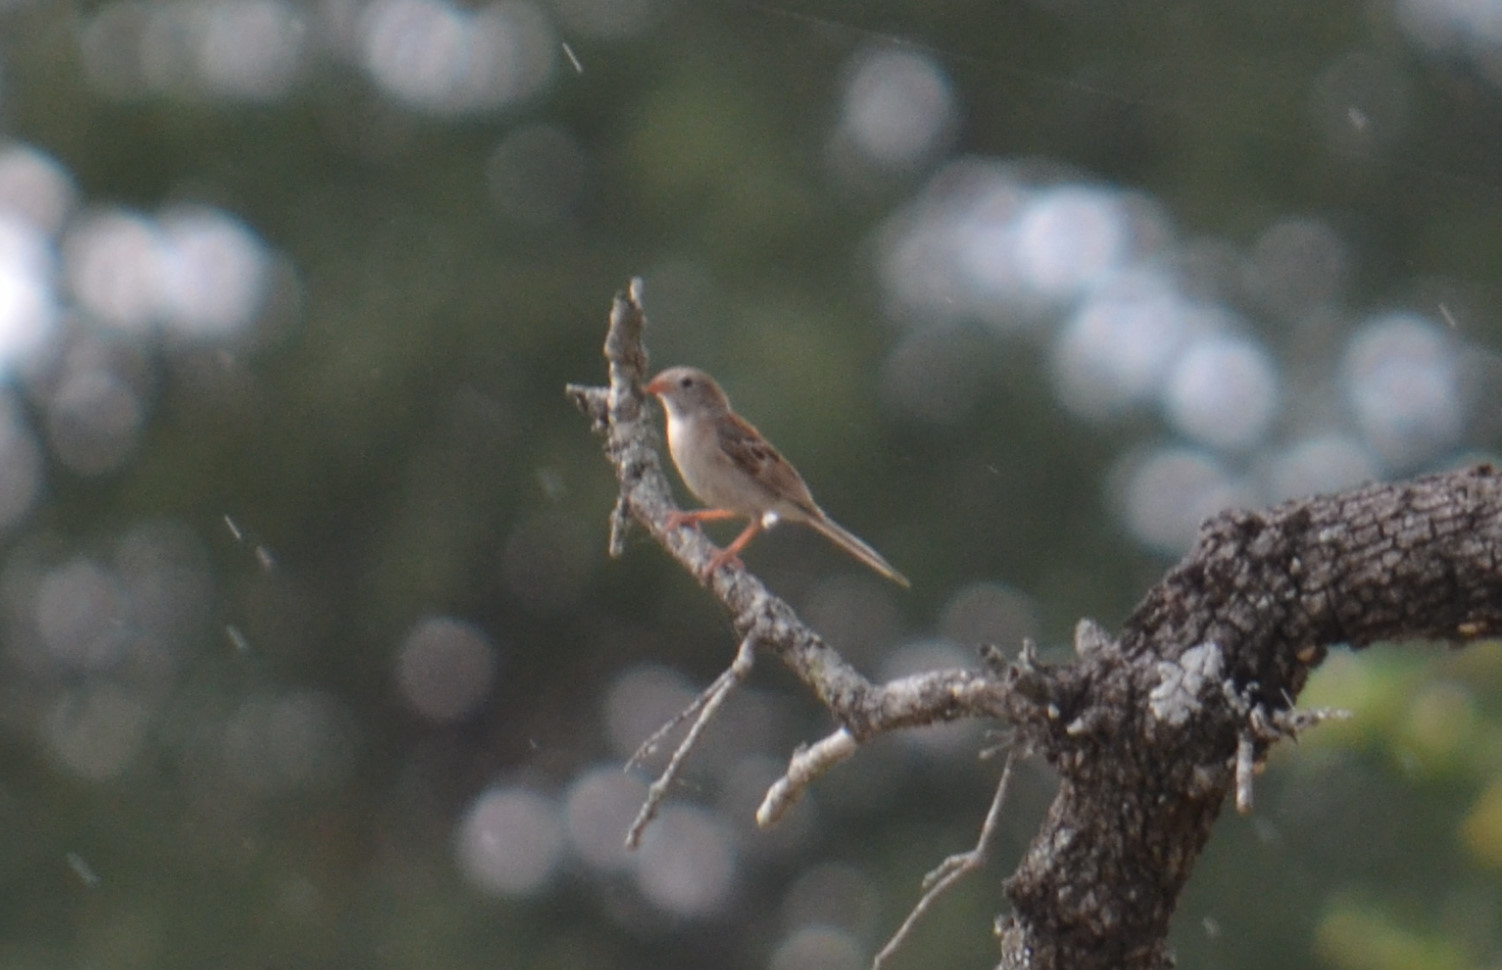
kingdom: Animalia
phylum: Chordata
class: Aves
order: Passeriformes
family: Passerellidae
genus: Spizella
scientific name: Spizella pusilla
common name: Field sparrow
